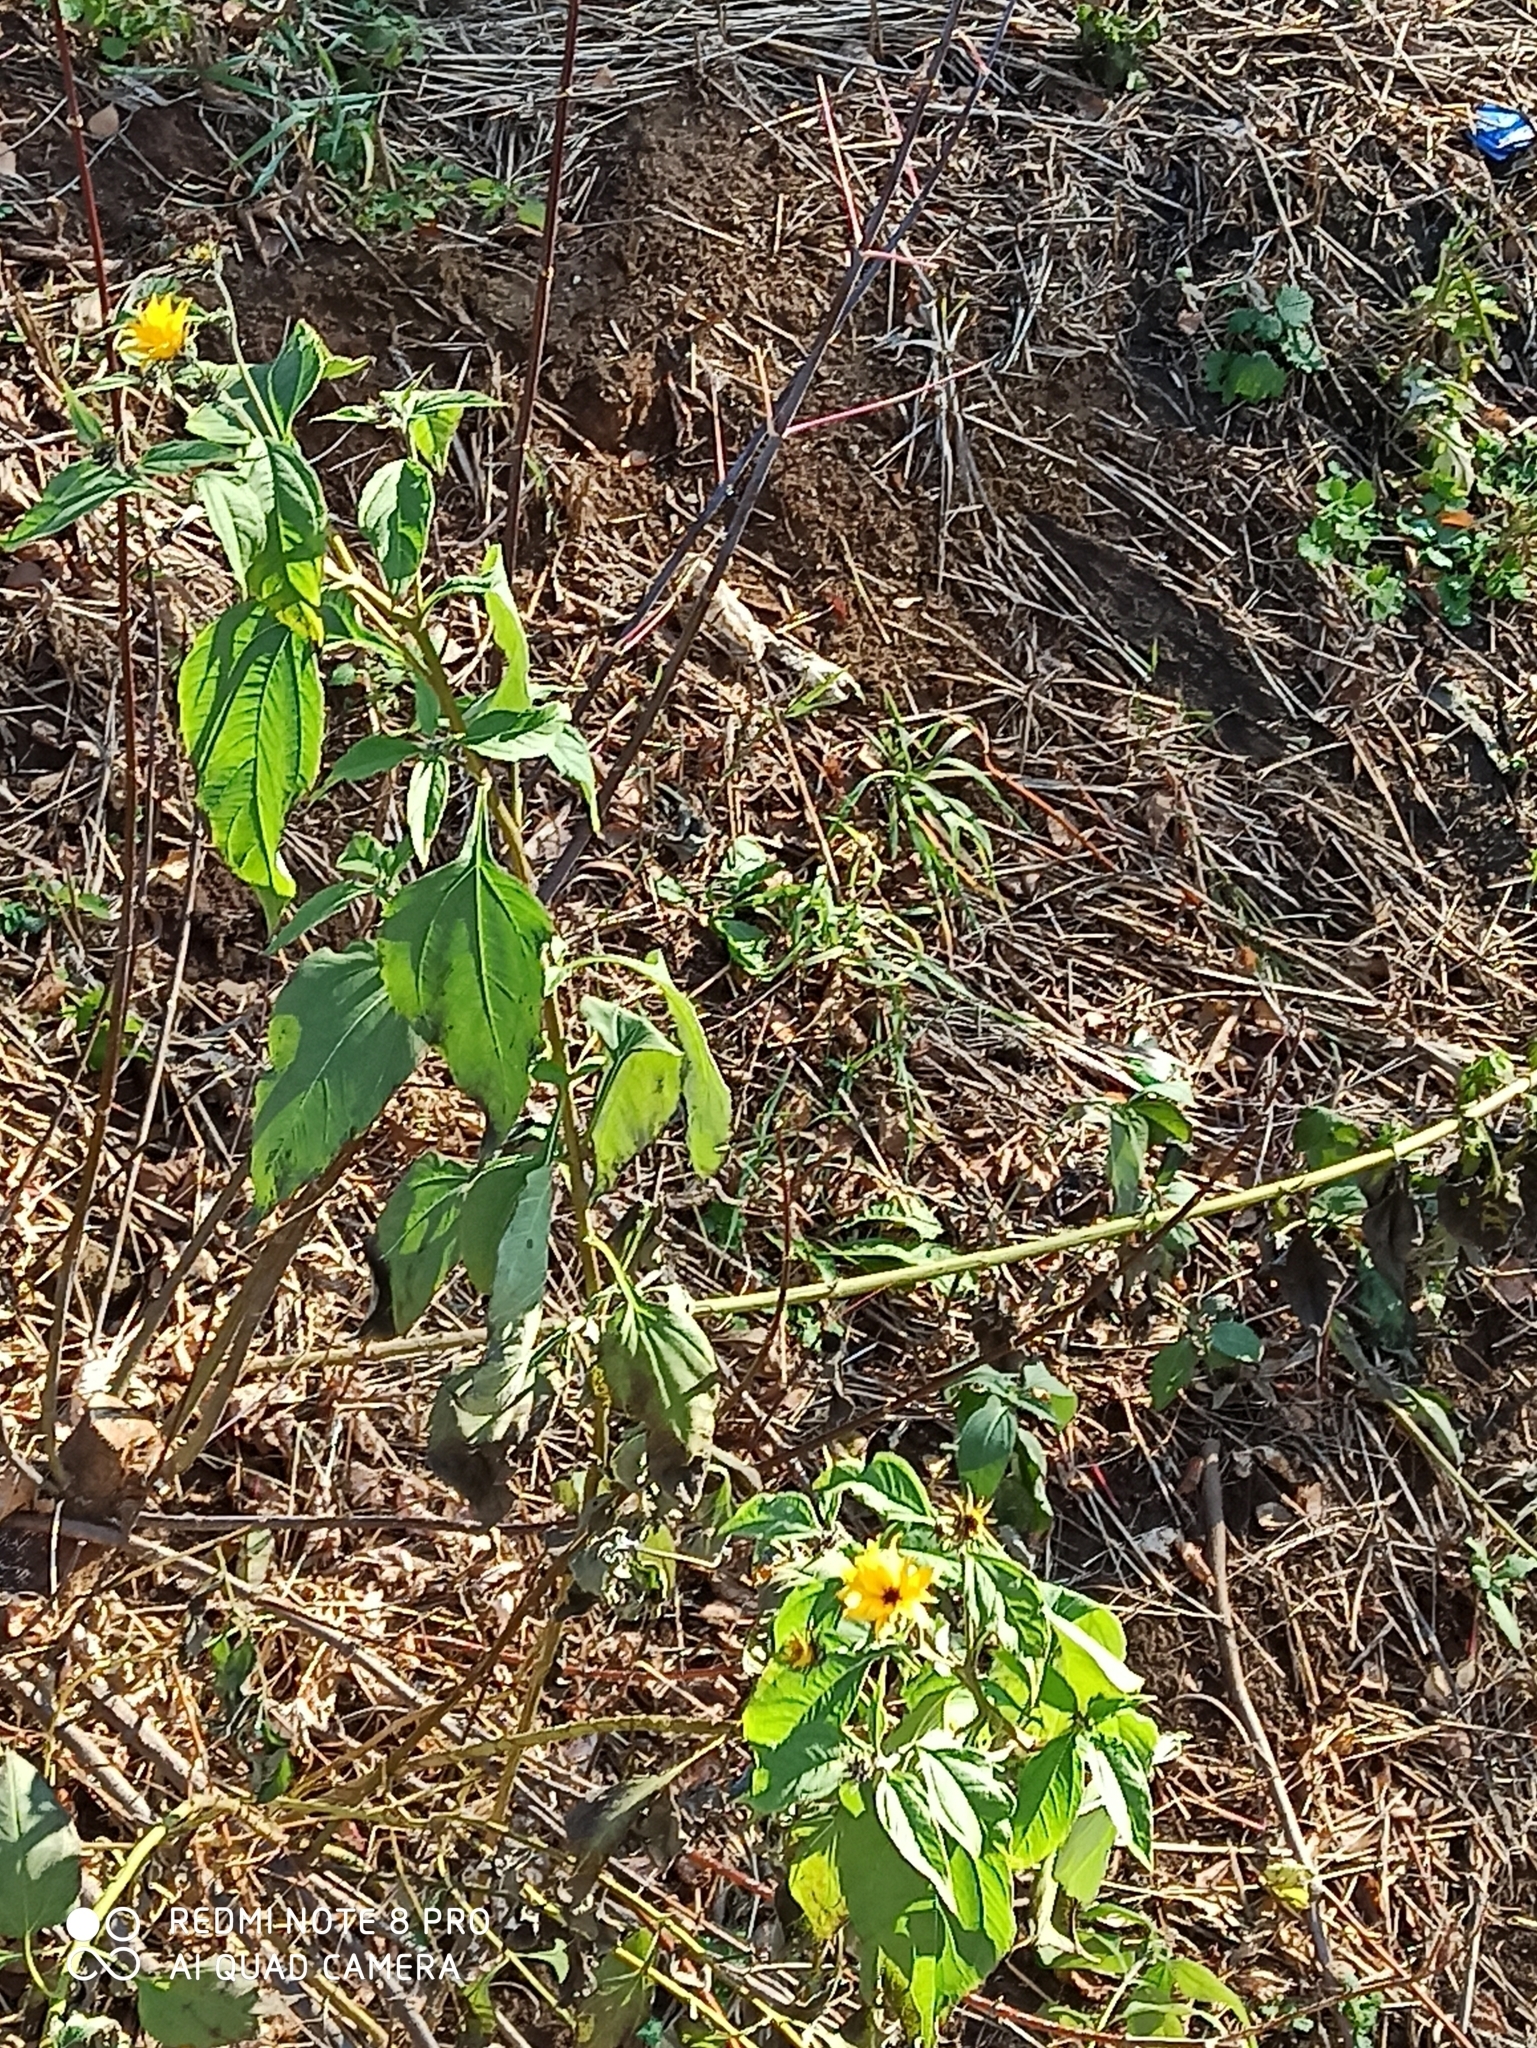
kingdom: Plantae
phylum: Tracheophyta
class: Magnoliopsida
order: Asterales
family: Asteraceae
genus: Helianthus
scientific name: Helianthus tuberosus
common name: Jerusalem artichoke
